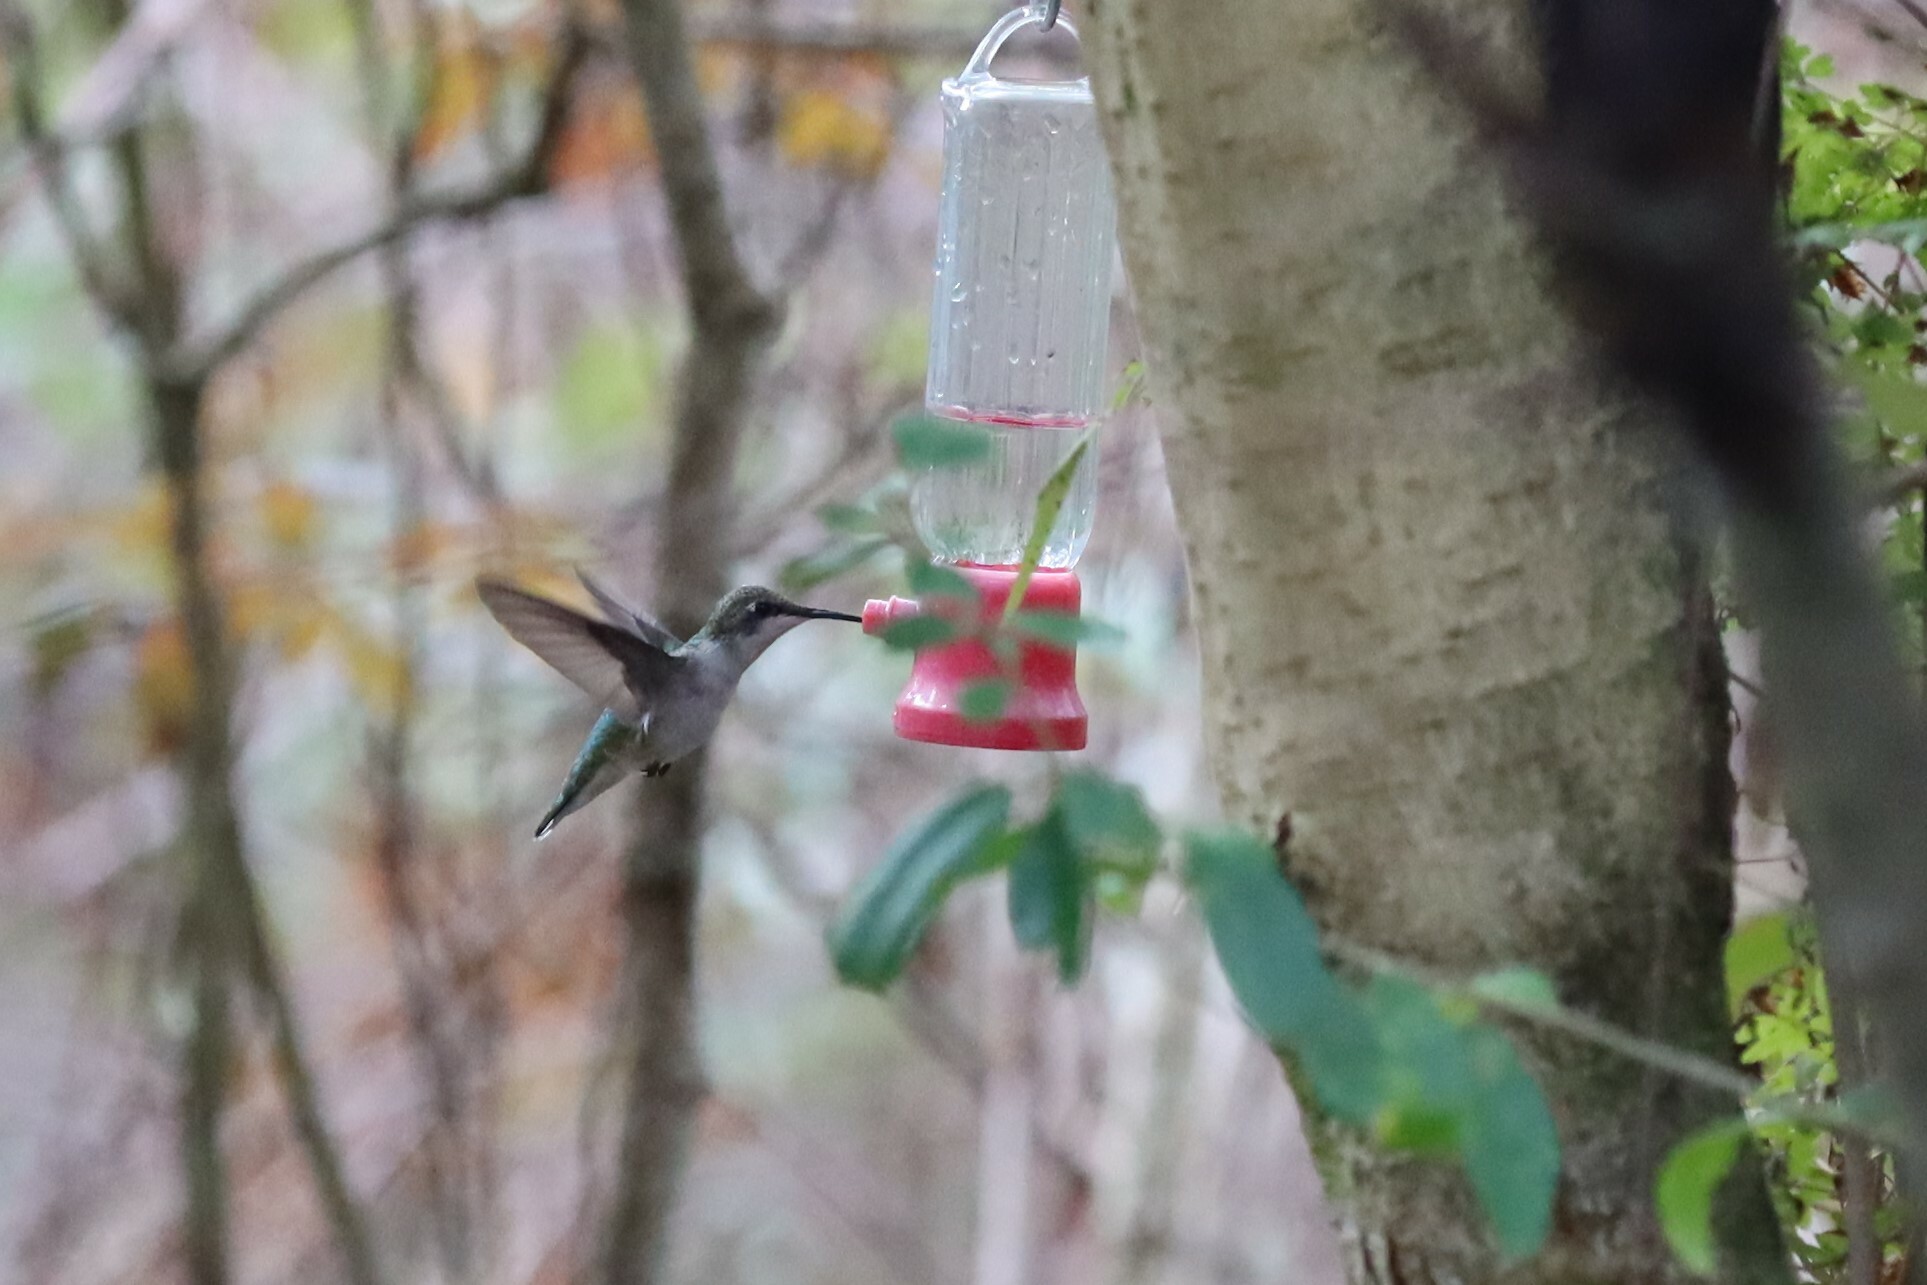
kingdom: Animalia
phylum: Chordata
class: Aves
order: Apodiformes
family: Trochilidae
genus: Archilochus
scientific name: Archilochus colubris
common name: Ruby-throated hummingbird
